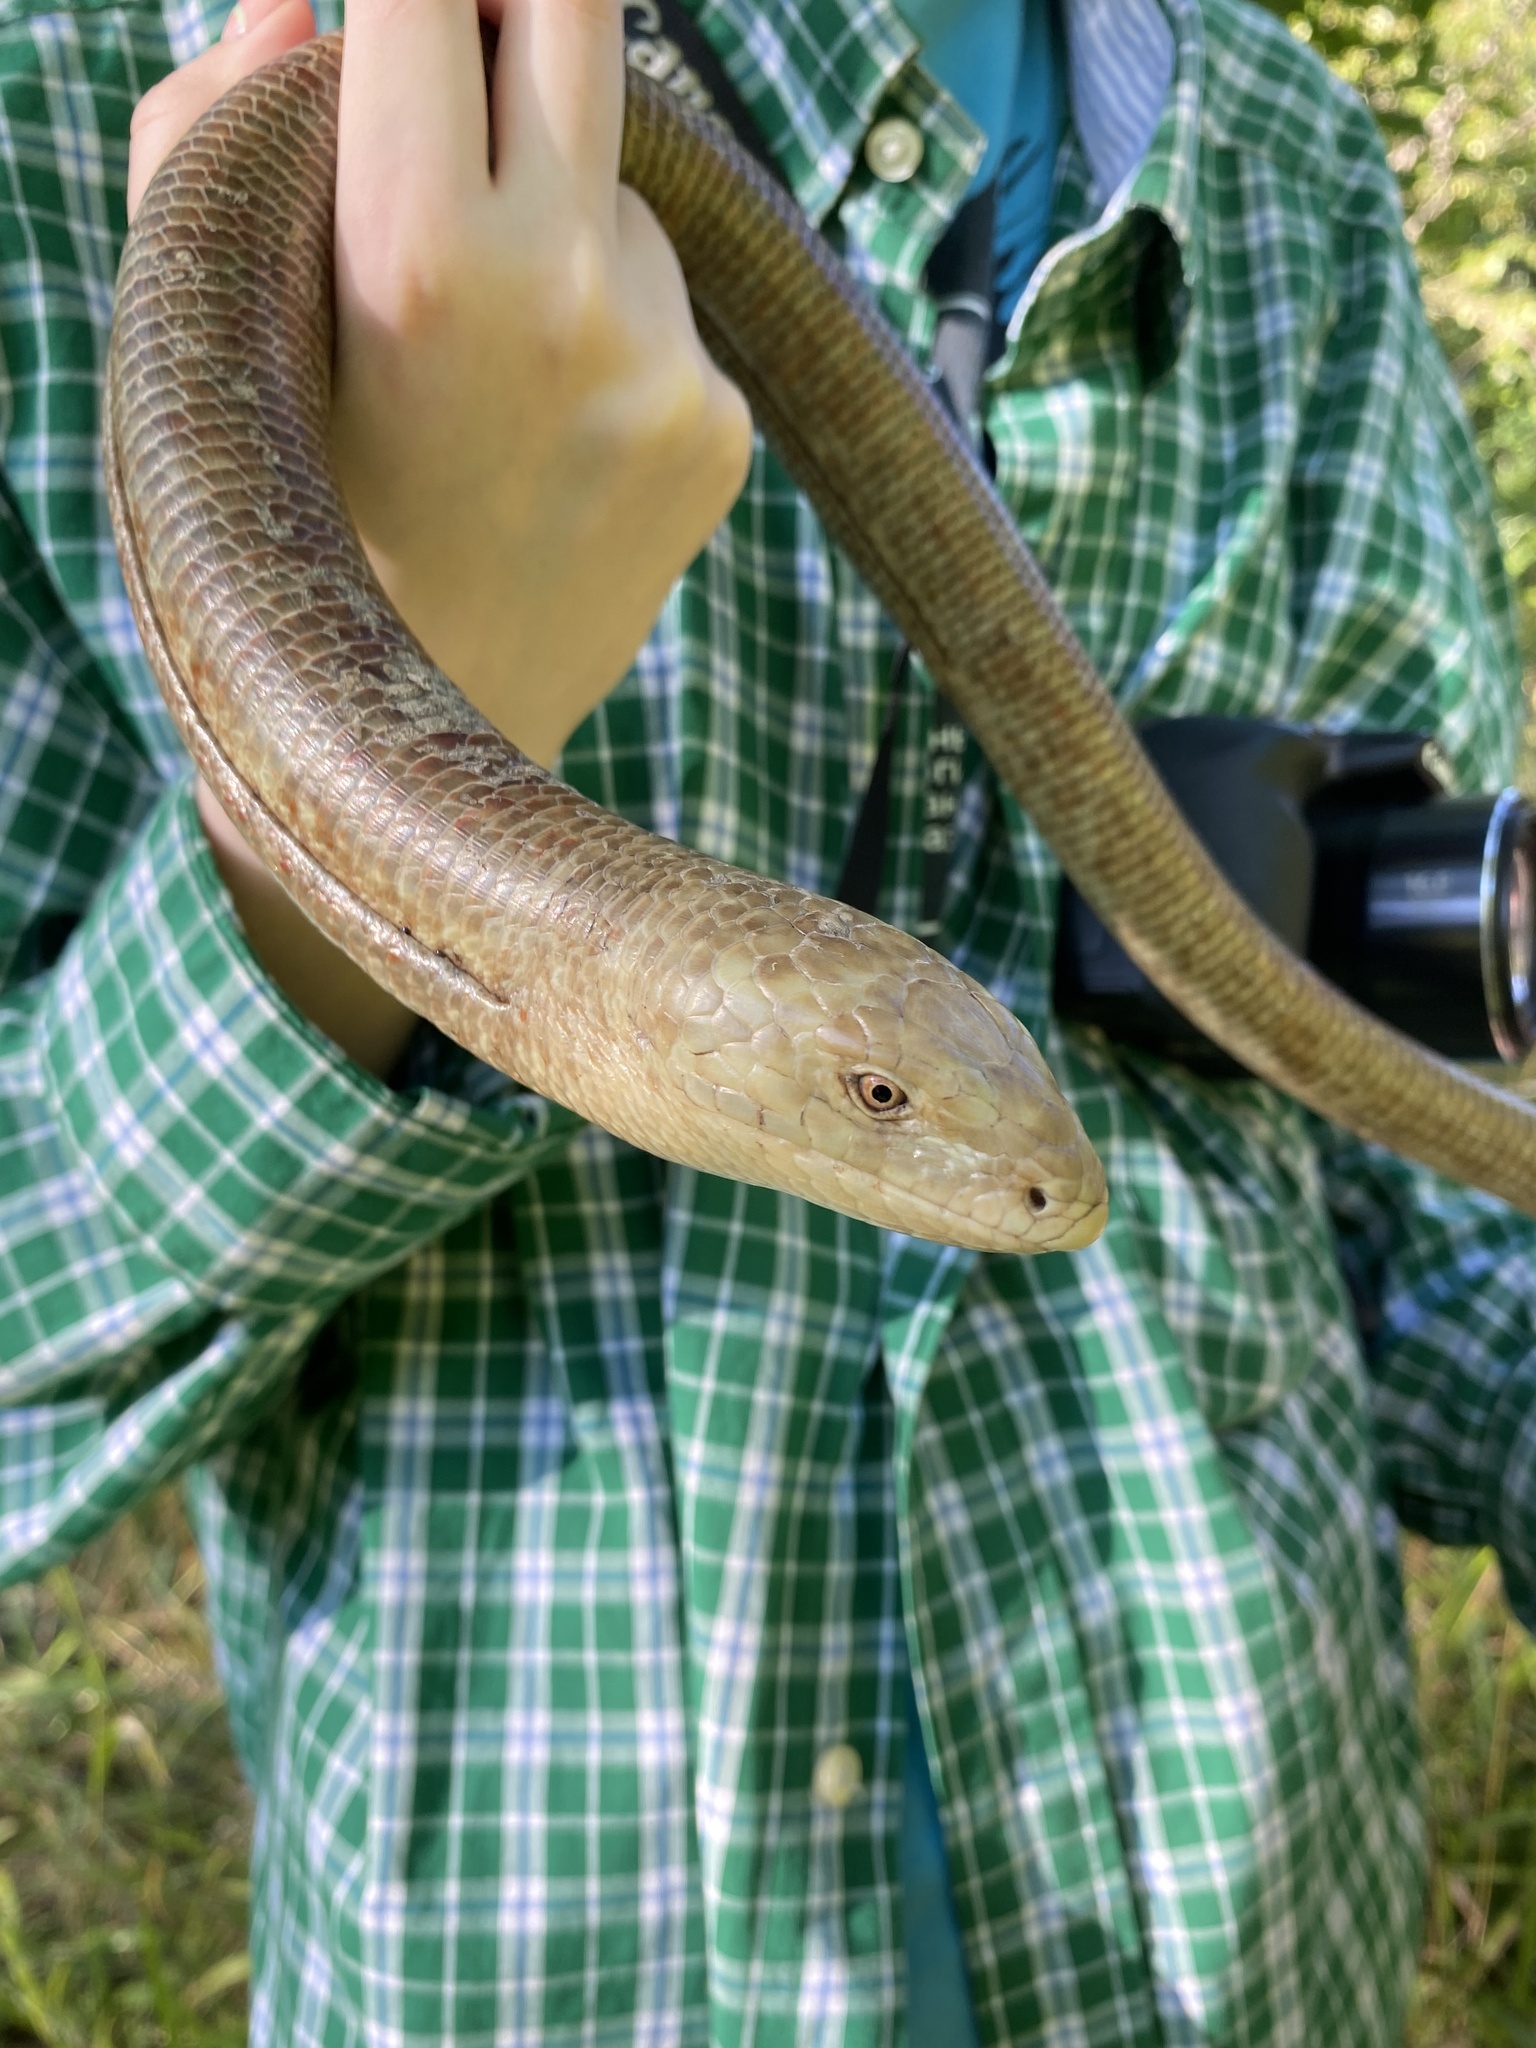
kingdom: Animalia
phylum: Chordata
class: Squamata
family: Anguidae
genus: Pseudopus
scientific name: Pseudopus apodus
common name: European glass lizard
